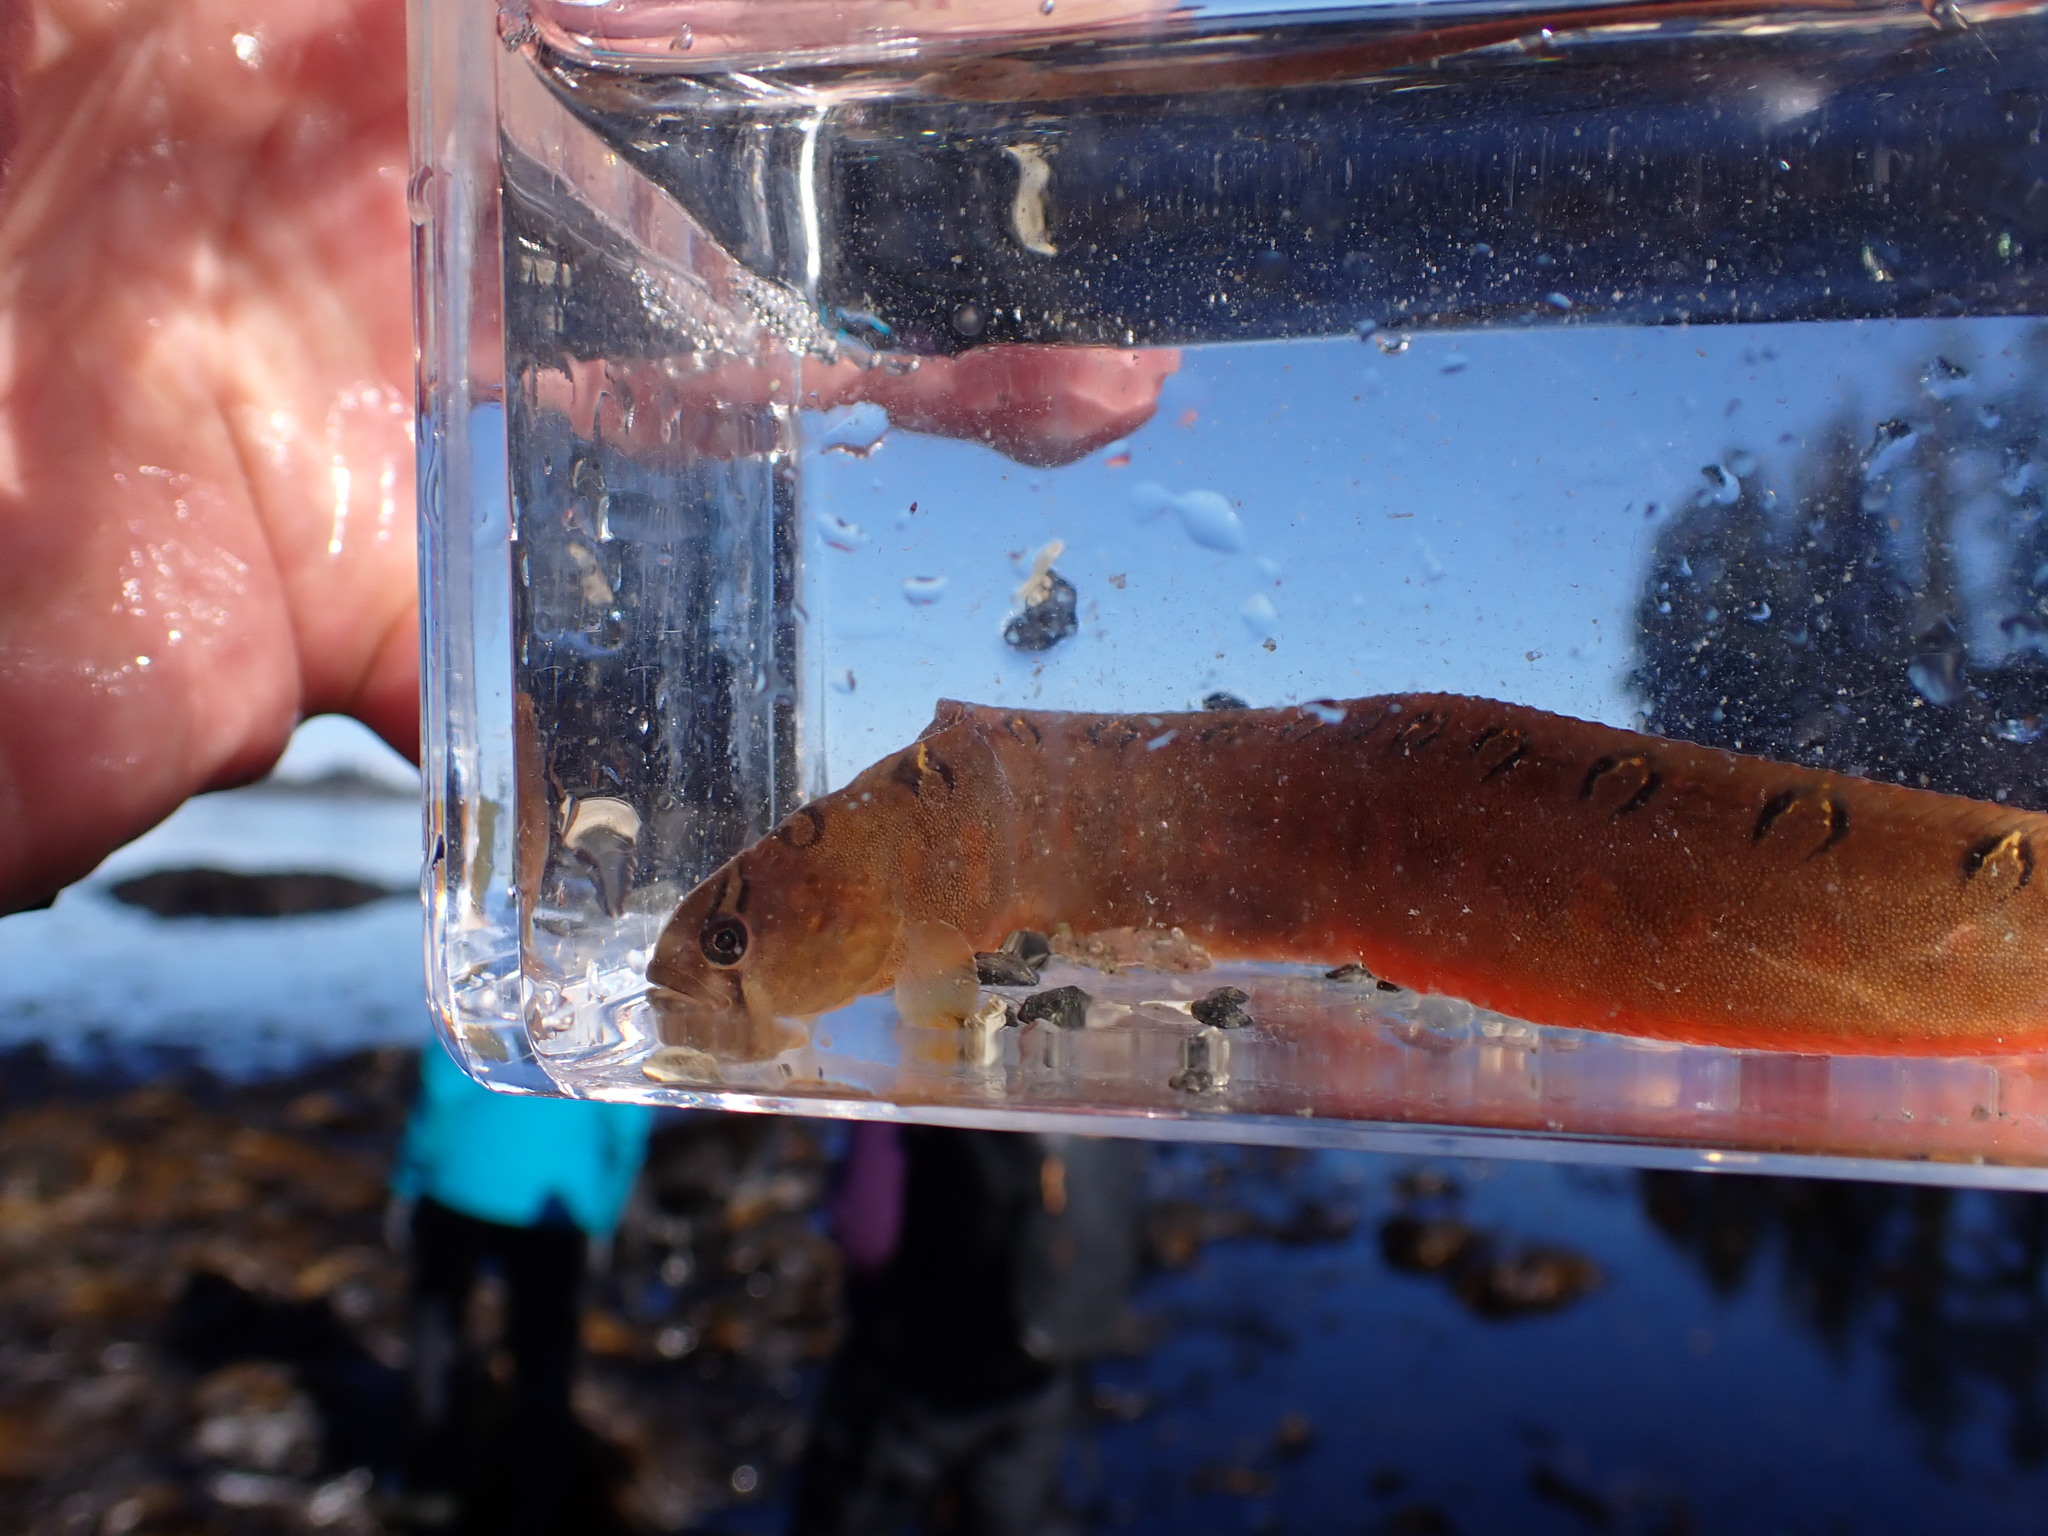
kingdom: Animalia
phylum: Chordata
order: Perciformes
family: Pholidae
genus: Pholis
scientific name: Pholis laeta
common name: Crescent gunnel
